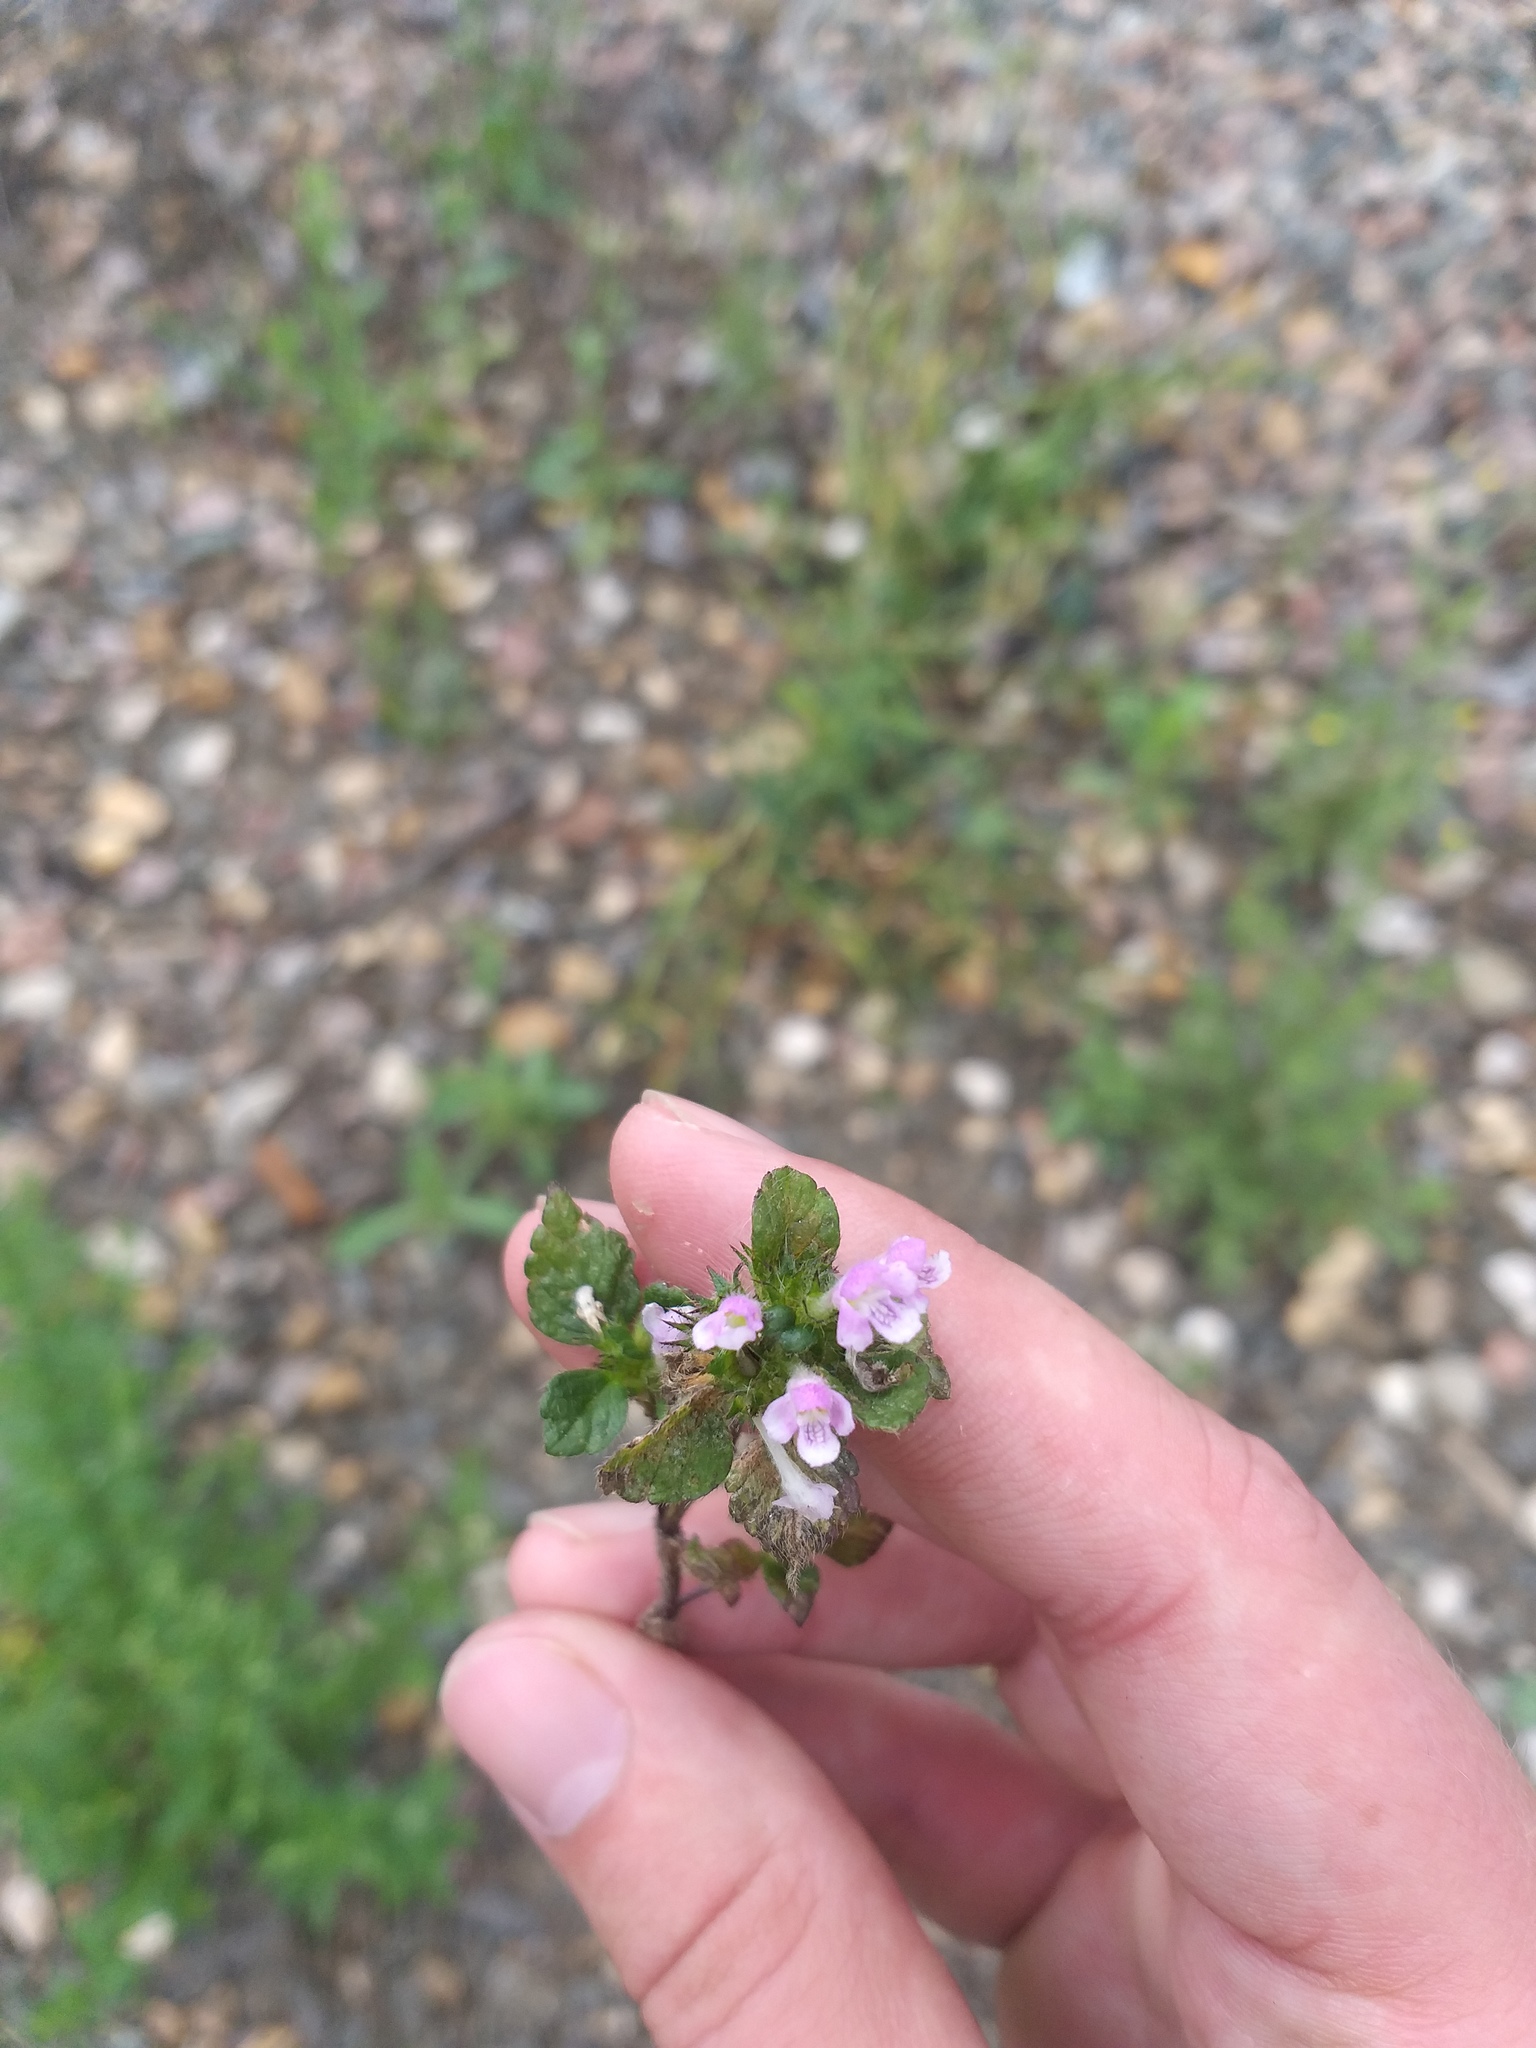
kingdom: Plantae
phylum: Tracheophyta
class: Magnoliopsida
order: Lamiales
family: Lamiaceae
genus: Galeopsis
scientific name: Galeopsis tetrahit
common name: Common hemp-nettle
